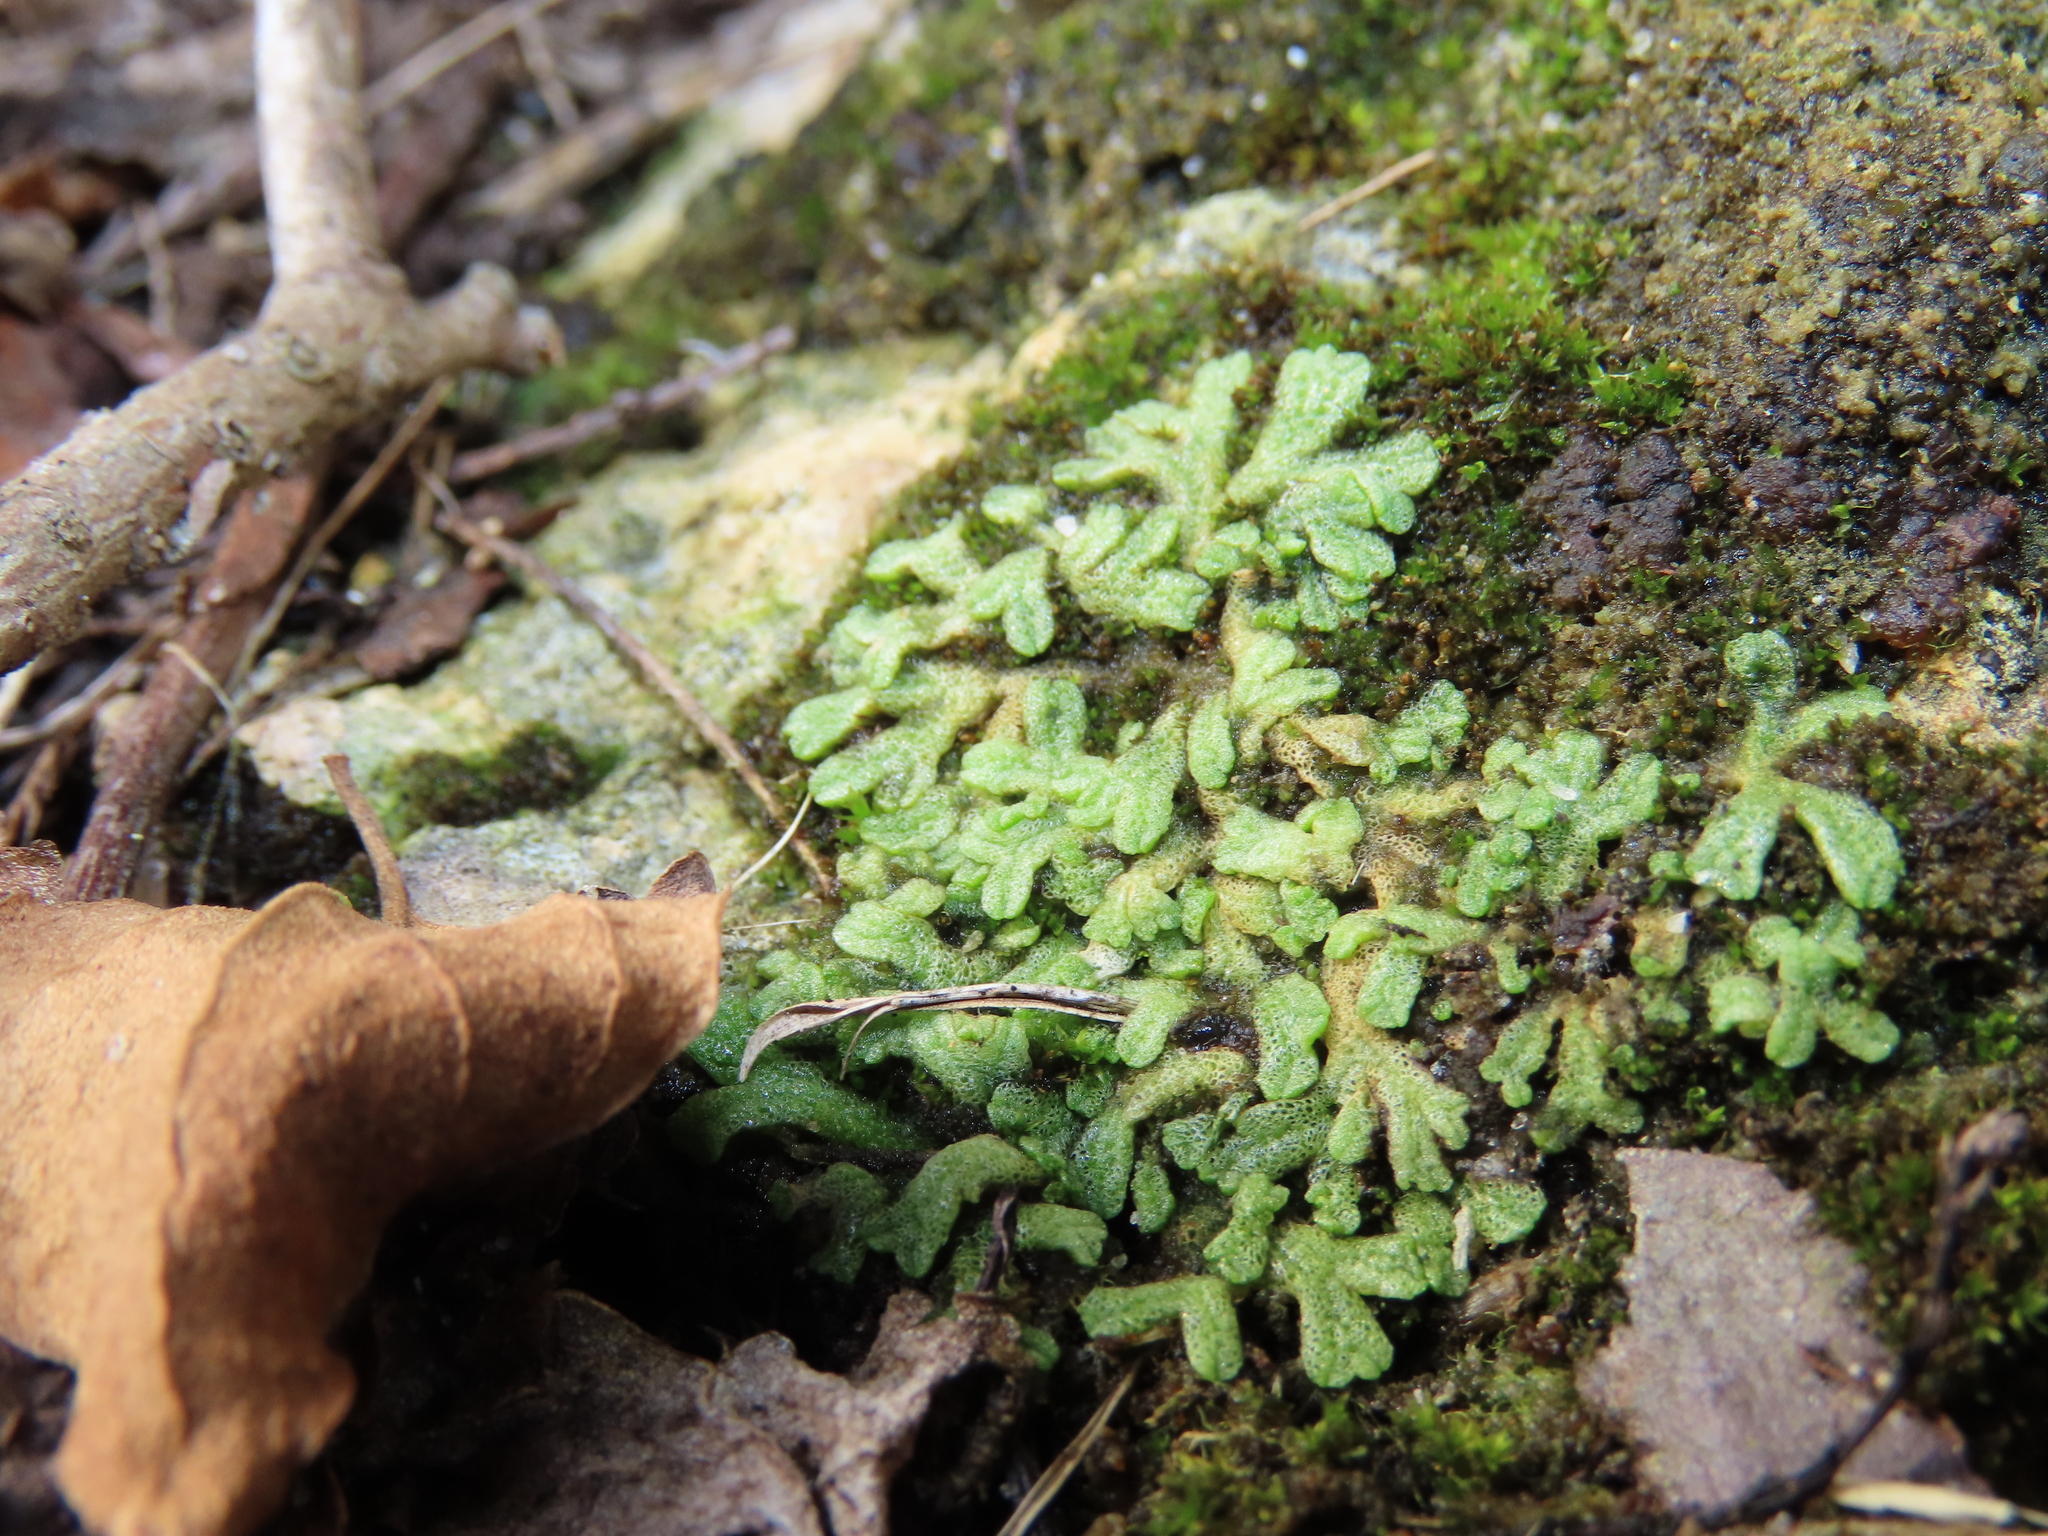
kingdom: Plantae
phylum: Marchantiophyta
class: Marchantiopsida
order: Marchantiales
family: Ricciaceae
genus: Riccia
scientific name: Riccia cavernosa
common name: Cavernous crystalwort
